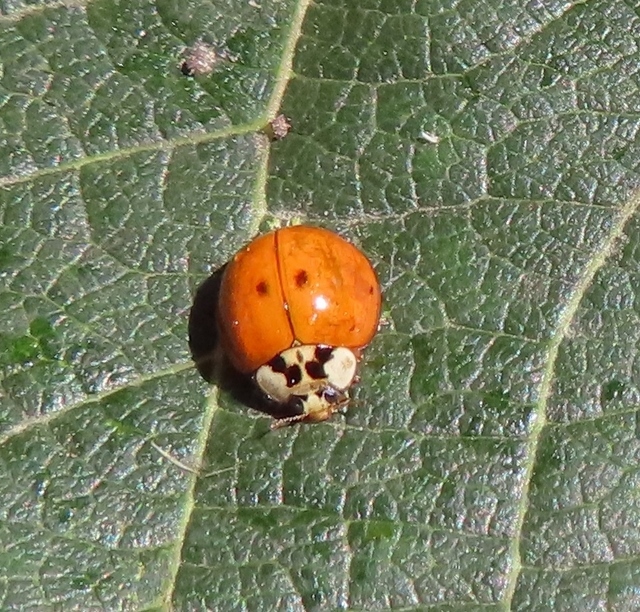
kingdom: Animalia
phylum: Arthropoda
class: Insecta
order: Coleoptera
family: Coccinellidae
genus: Harmonia
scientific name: Harmonia axyridis
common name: Harlequin ladybird
